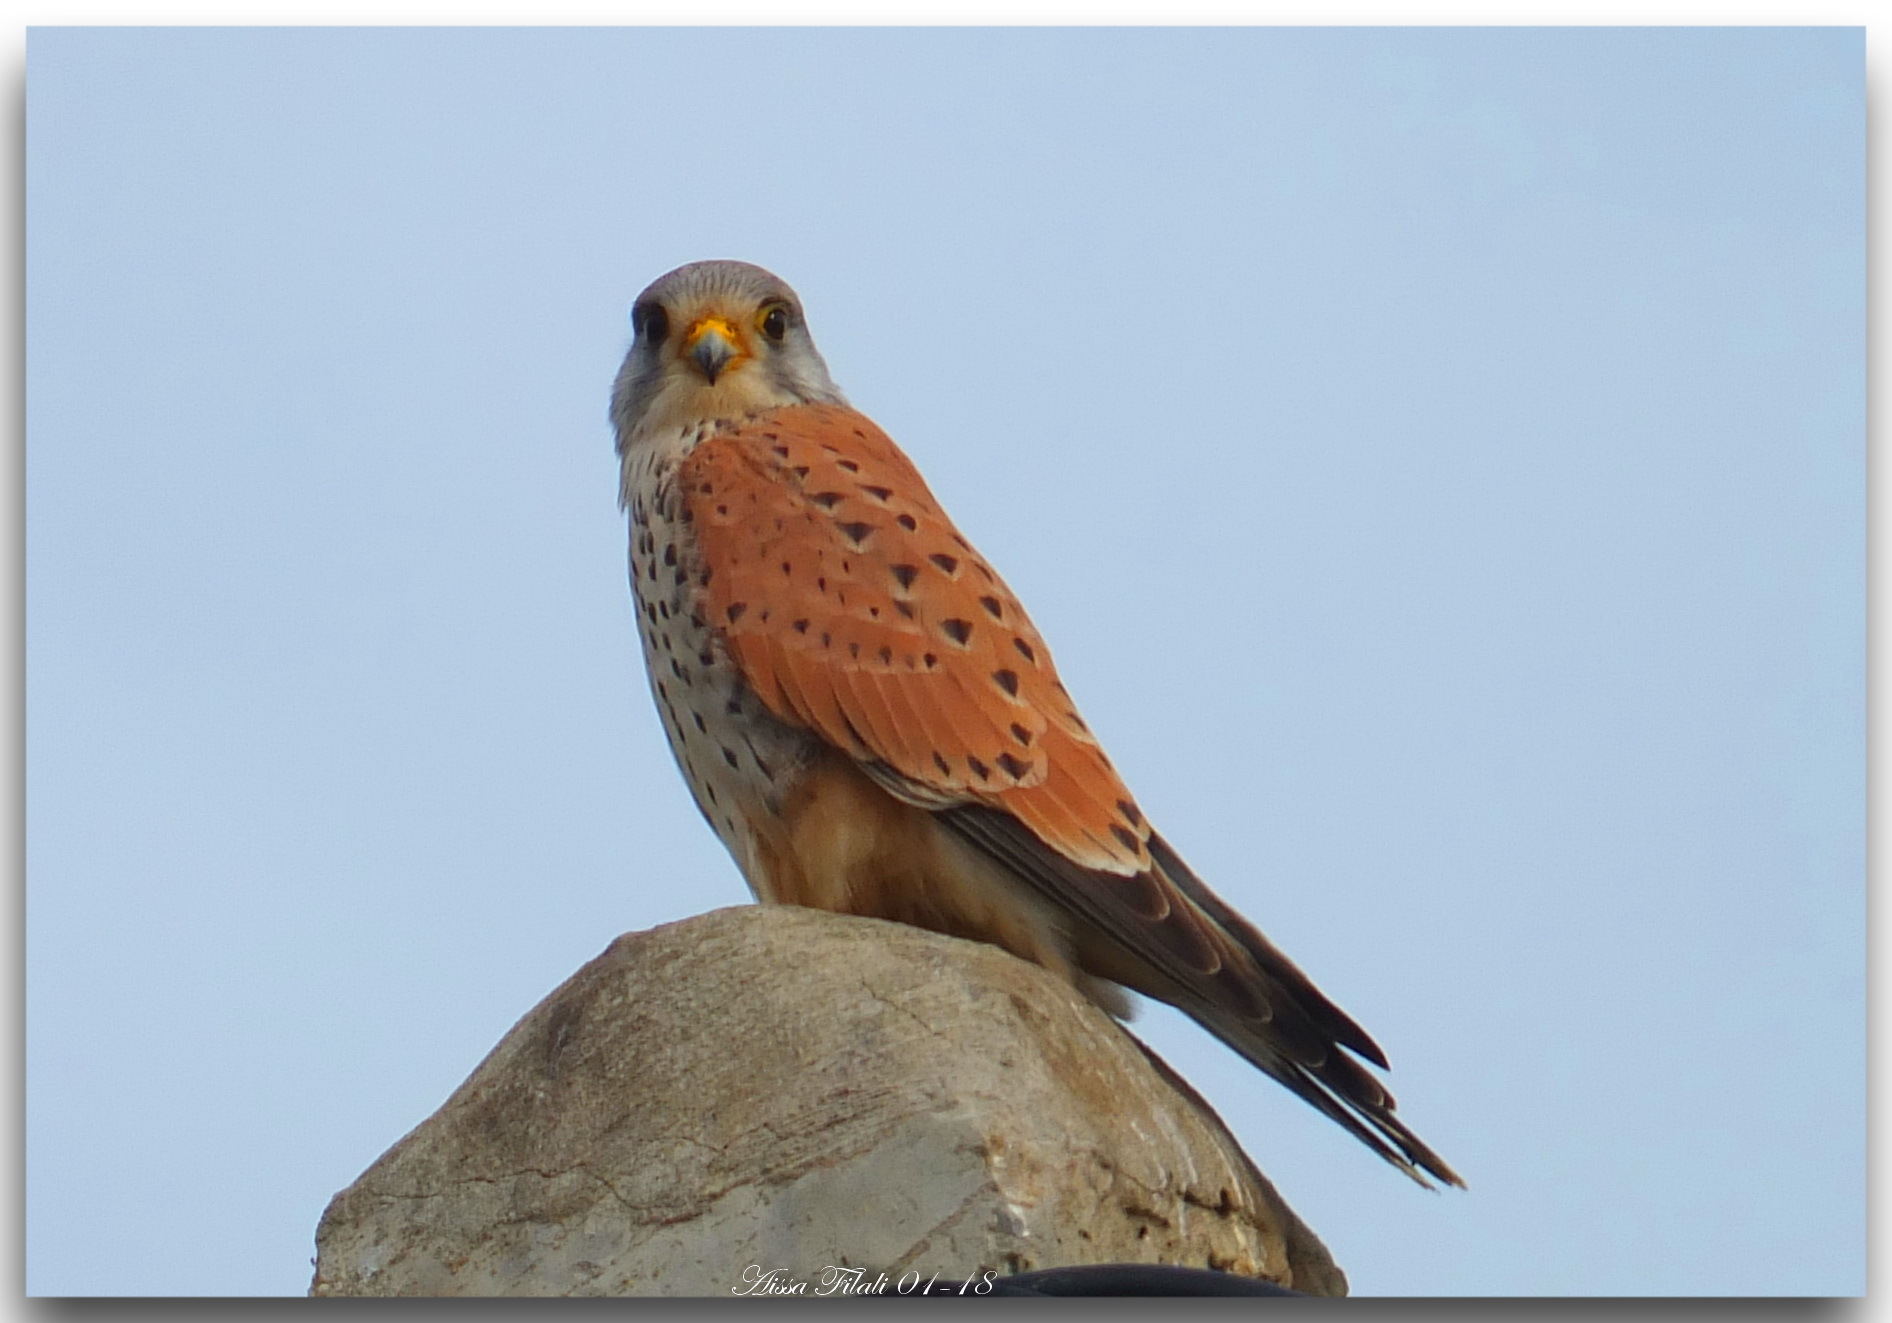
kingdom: Animalia
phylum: Chordata
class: Aves
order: Falconiformes
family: Falconidae
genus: Falco
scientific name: Falco tinnunculus
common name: Common kestrel
